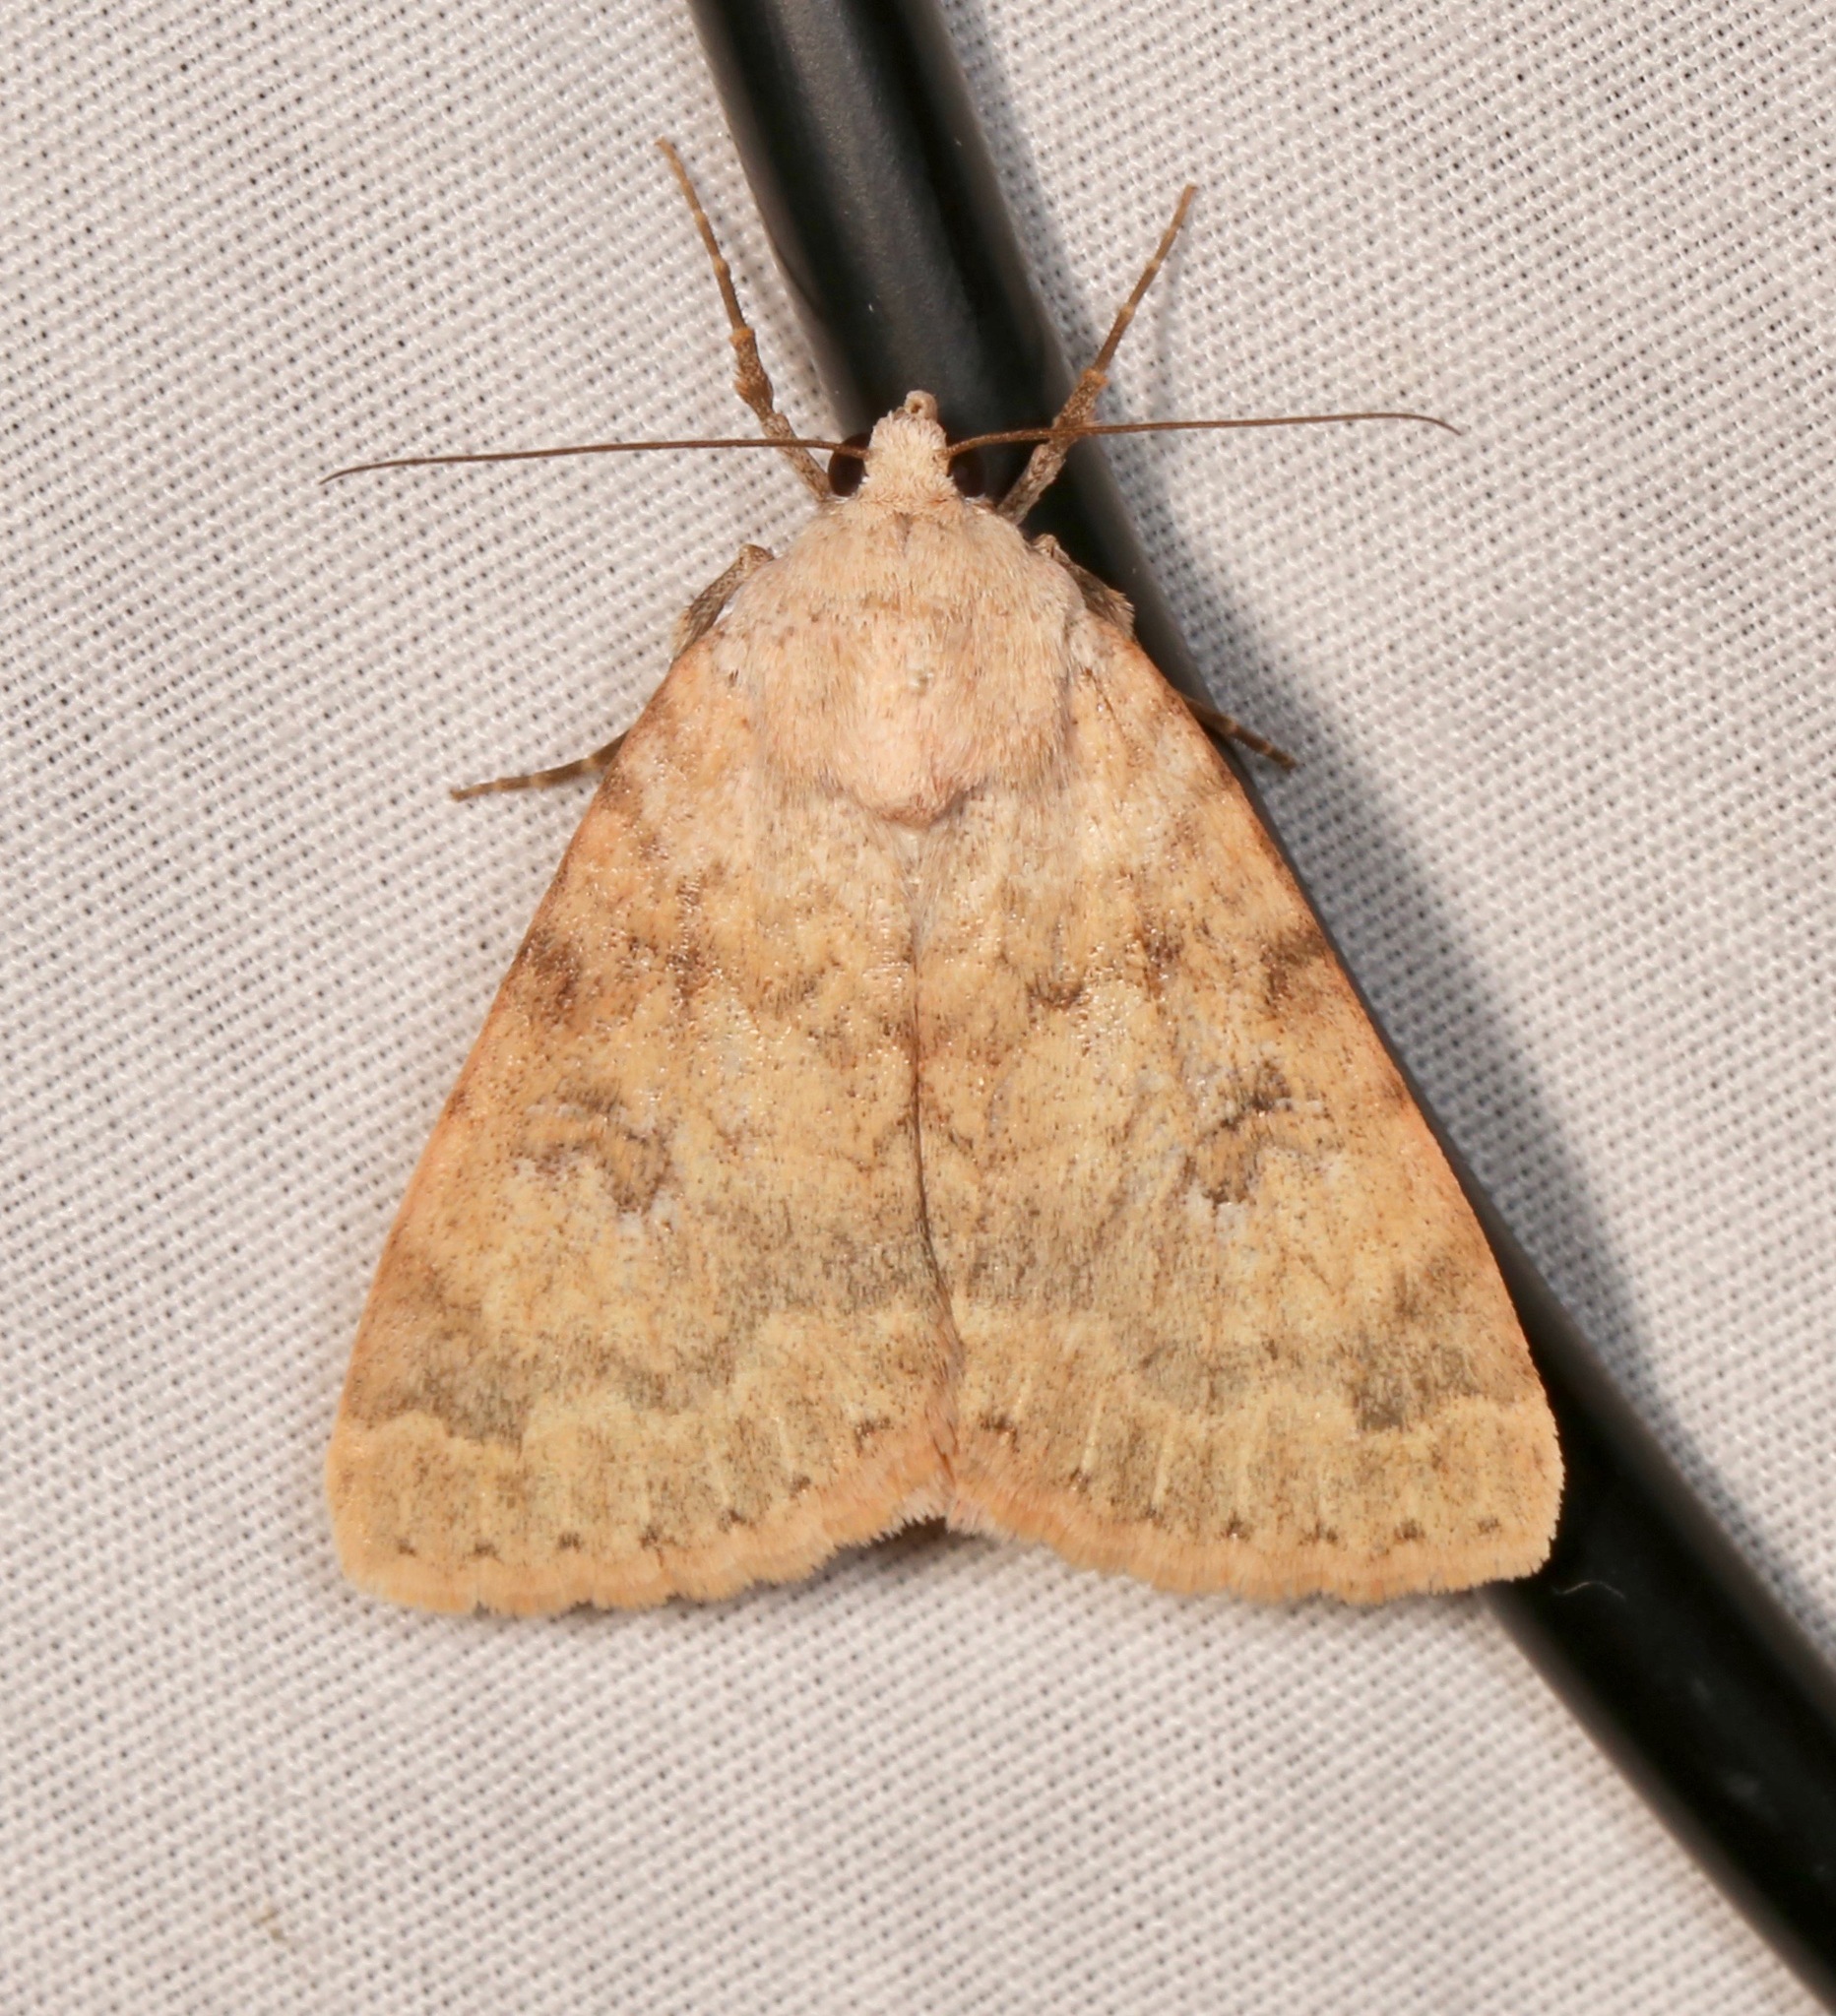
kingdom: Animalia
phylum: Arthropoda
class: Insecta
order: Lepidoptera
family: Erebidae
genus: Drasteria
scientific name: Drasteria inepta
